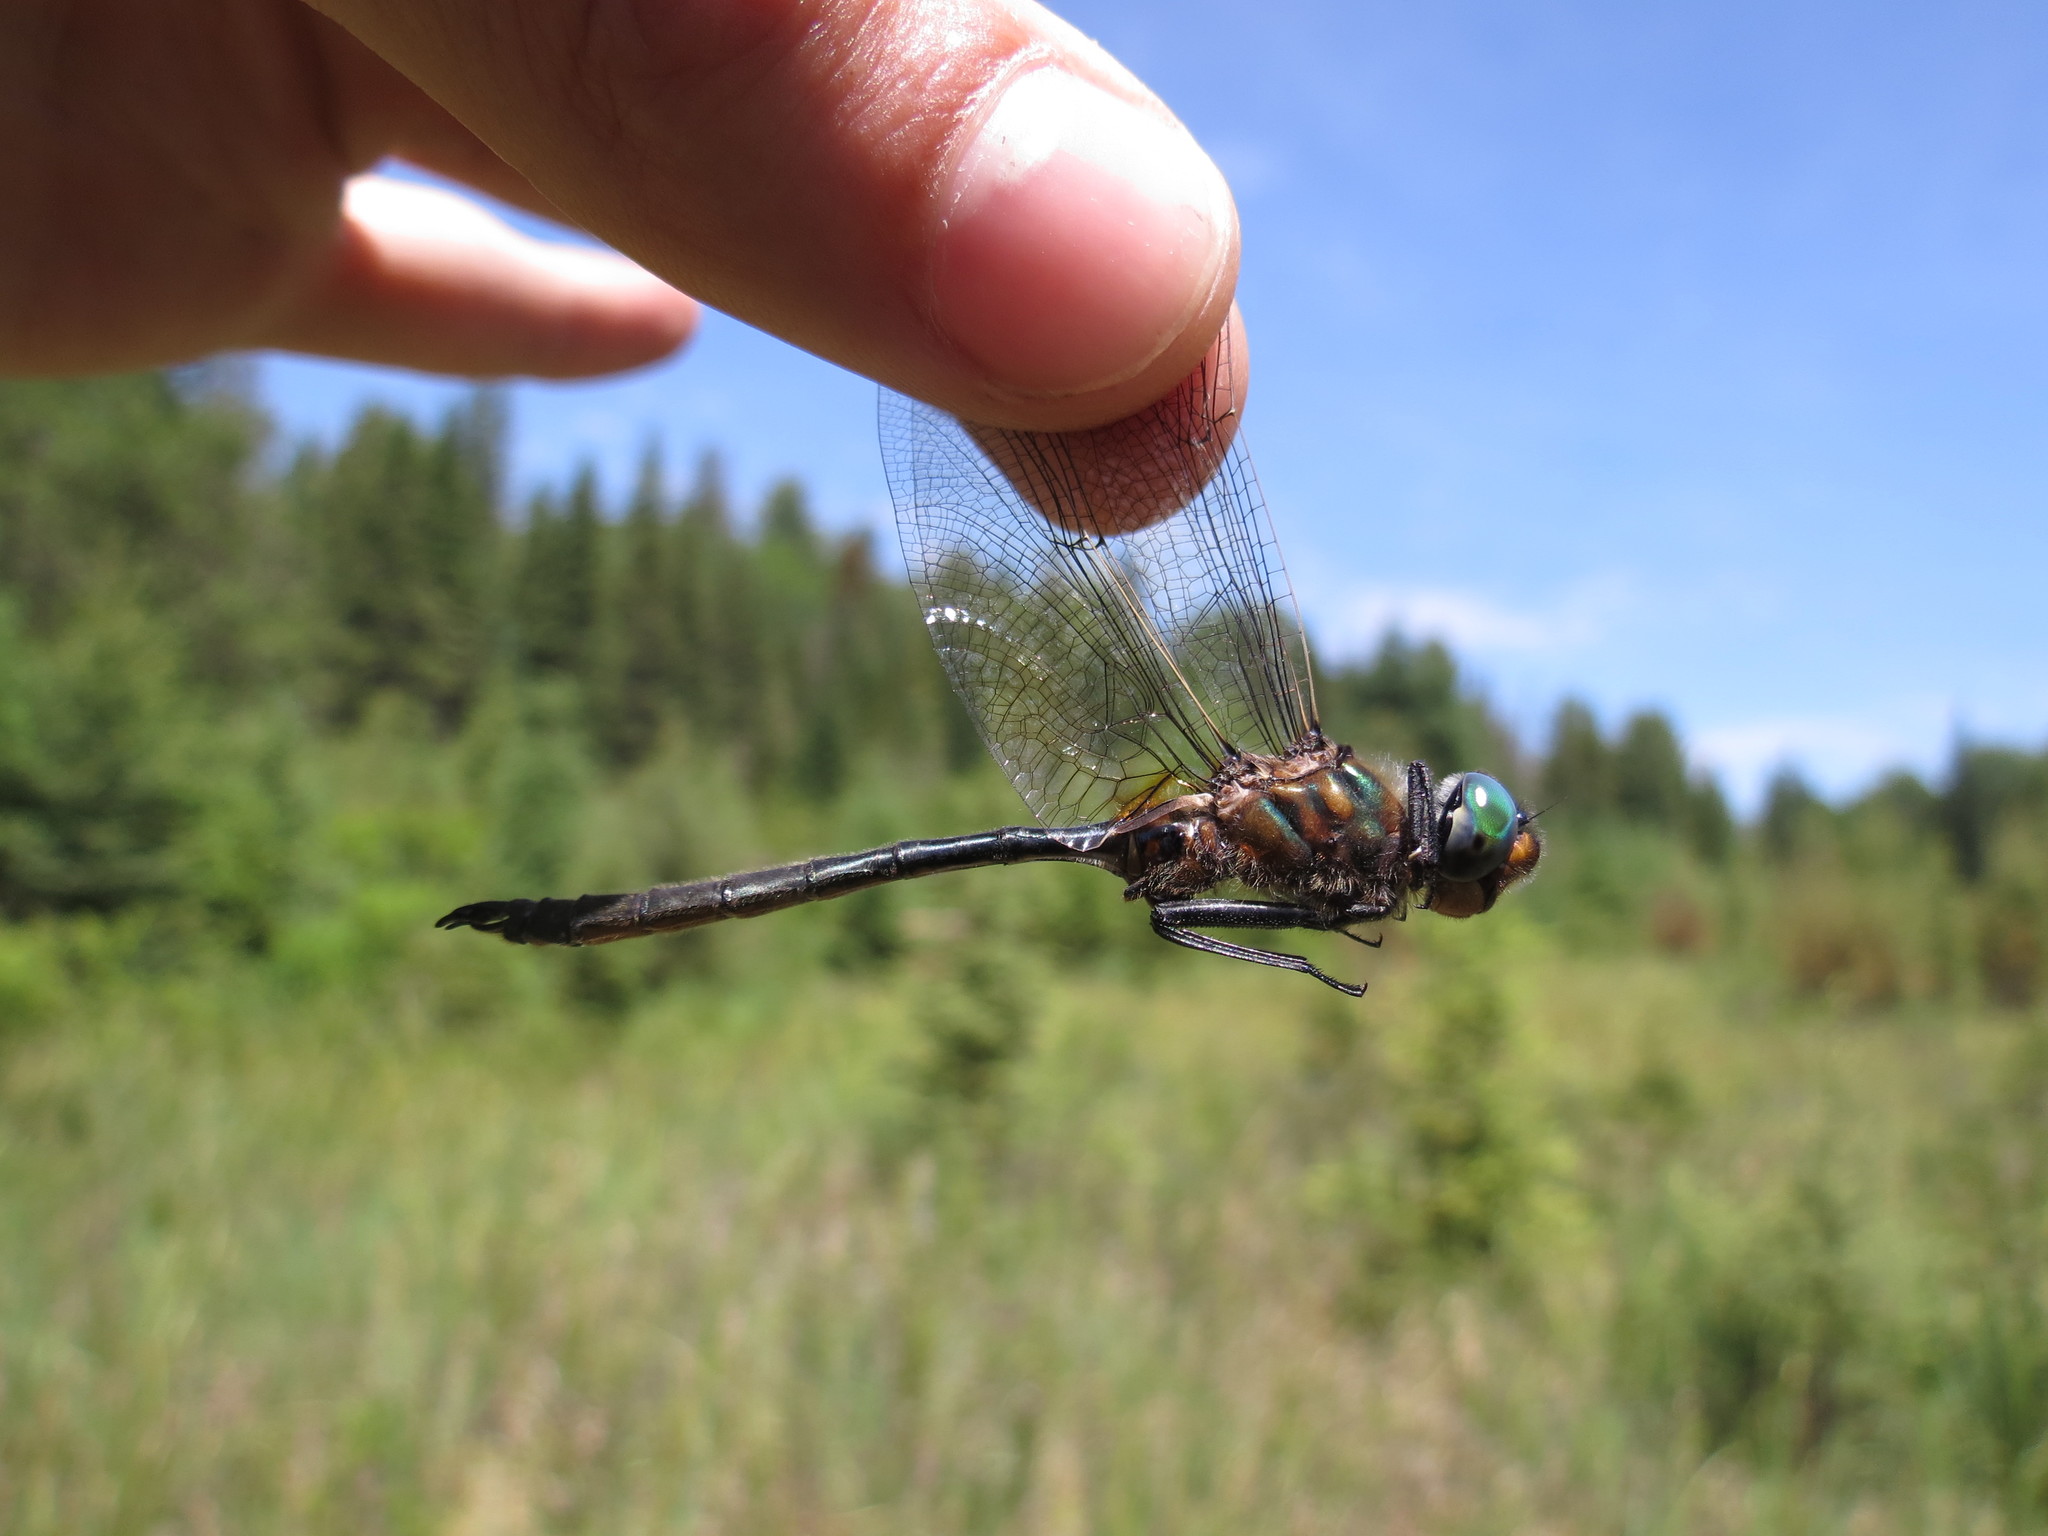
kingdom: Animalia
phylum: Arthropoda
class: Insecta
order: Odonata
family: Corduliidae
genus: Somatochlora
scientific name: Somatochlora kennedyi
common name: Kennedy's emerald
